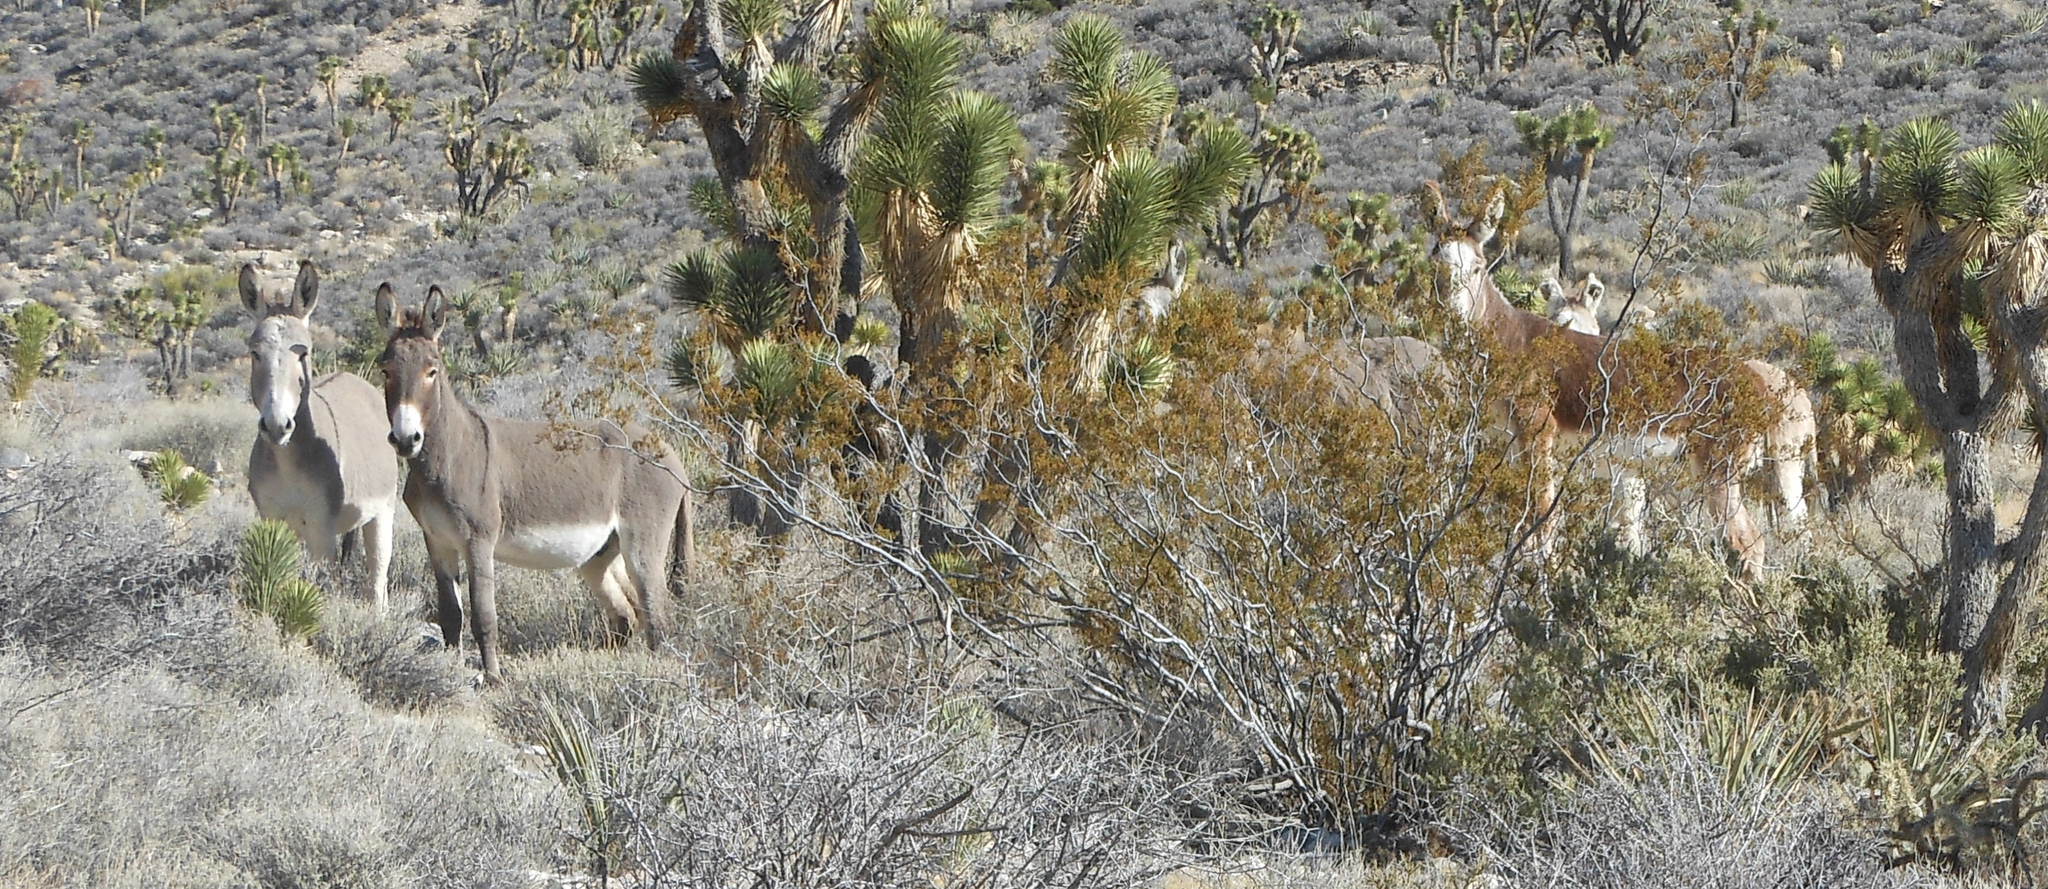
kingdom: Animalia
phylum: Chordata
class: Mammalia
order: Perissodactyla
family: Equidae
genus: Equus
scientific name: Equus asinus
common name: Ass
